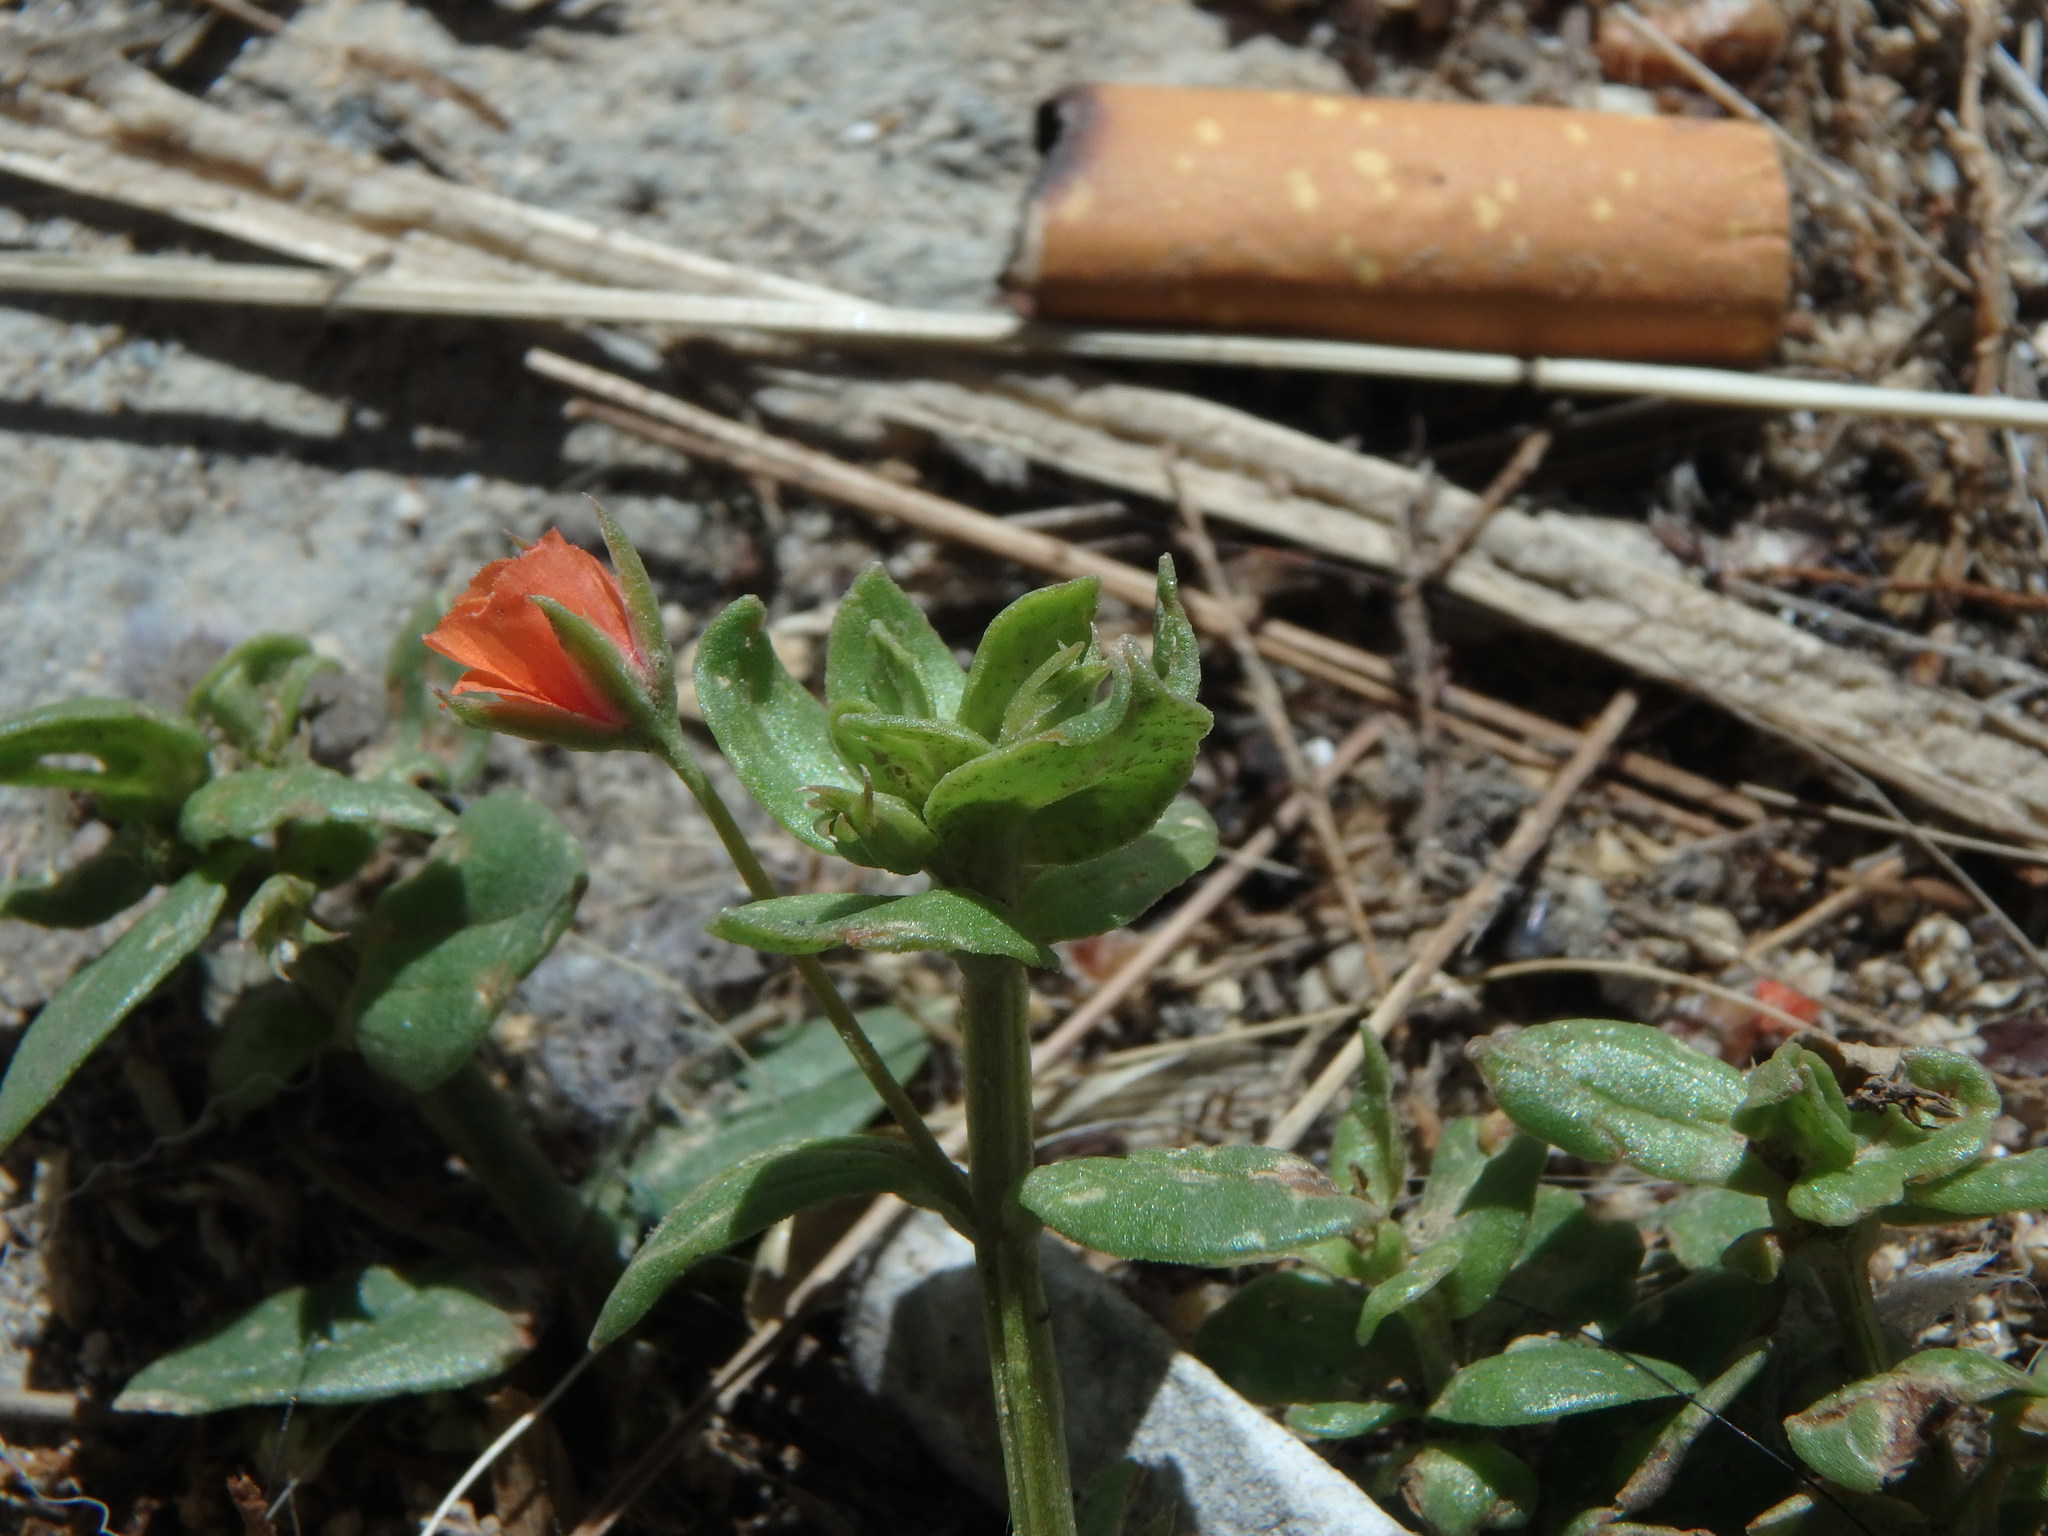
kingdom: Plantae
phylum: Tracheophyta
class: Magnoliopsida
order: Ericales
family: Primulaceae
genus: Lysimachia
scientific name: Lysimachia arvensis
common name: Scarlet pimpernel
